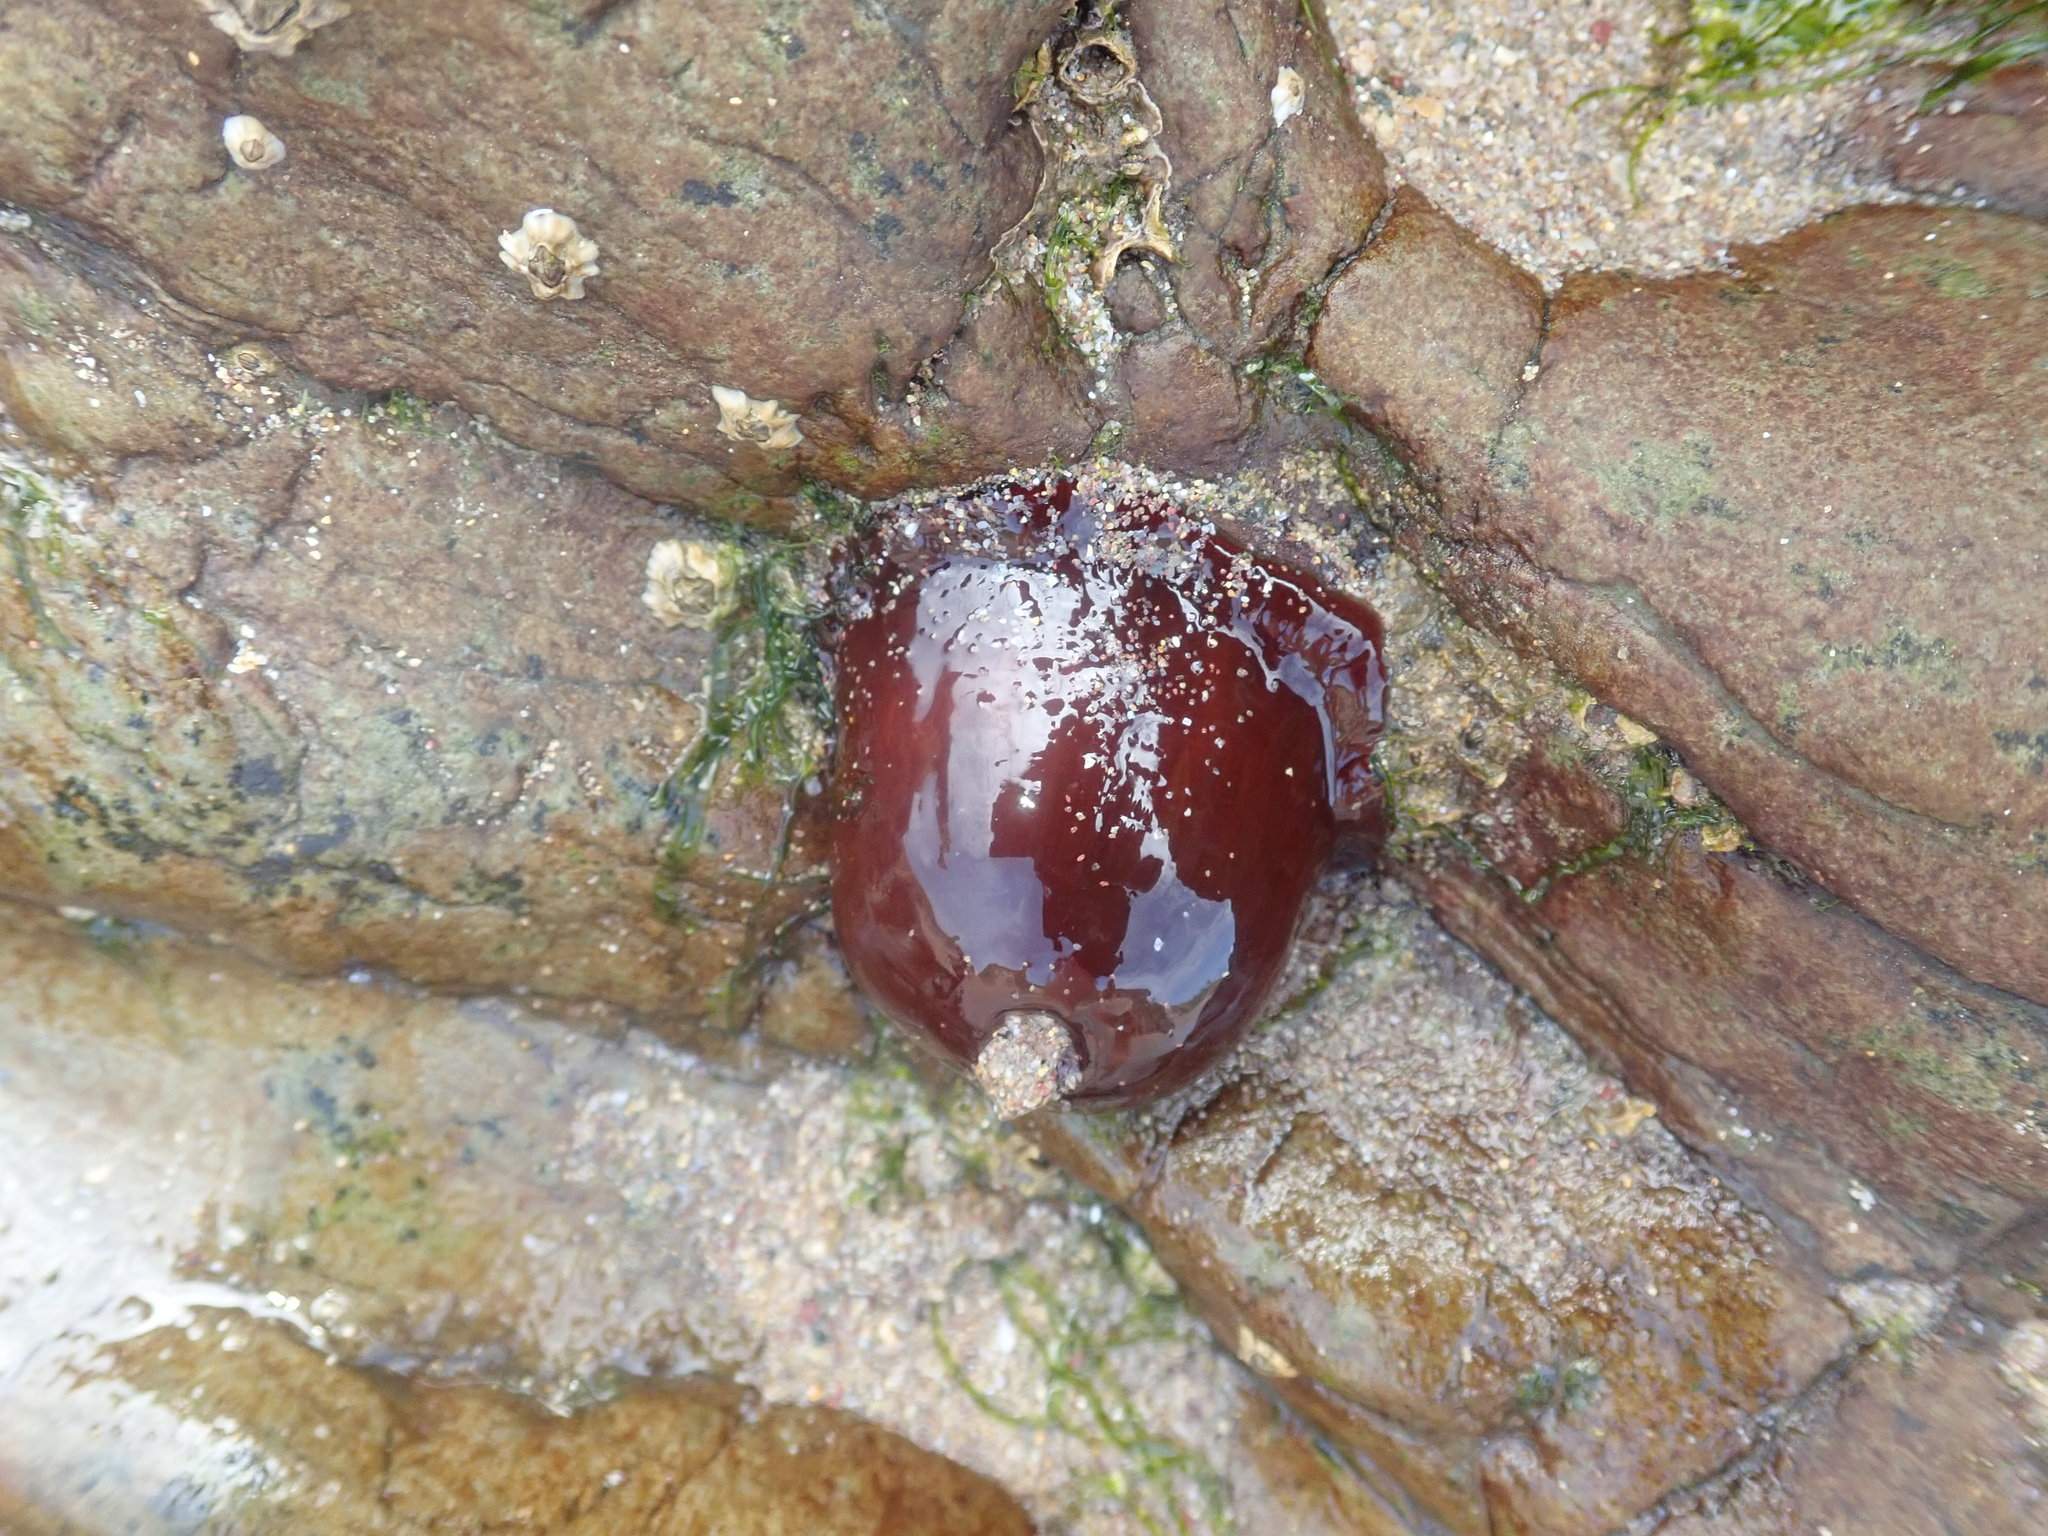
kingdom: Animalia
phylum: Cnidaria
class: Anthozoa
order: Actiniaria
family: Actiniidae
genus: Actinia
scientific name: Actinia equina
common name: Beadlet anemone
